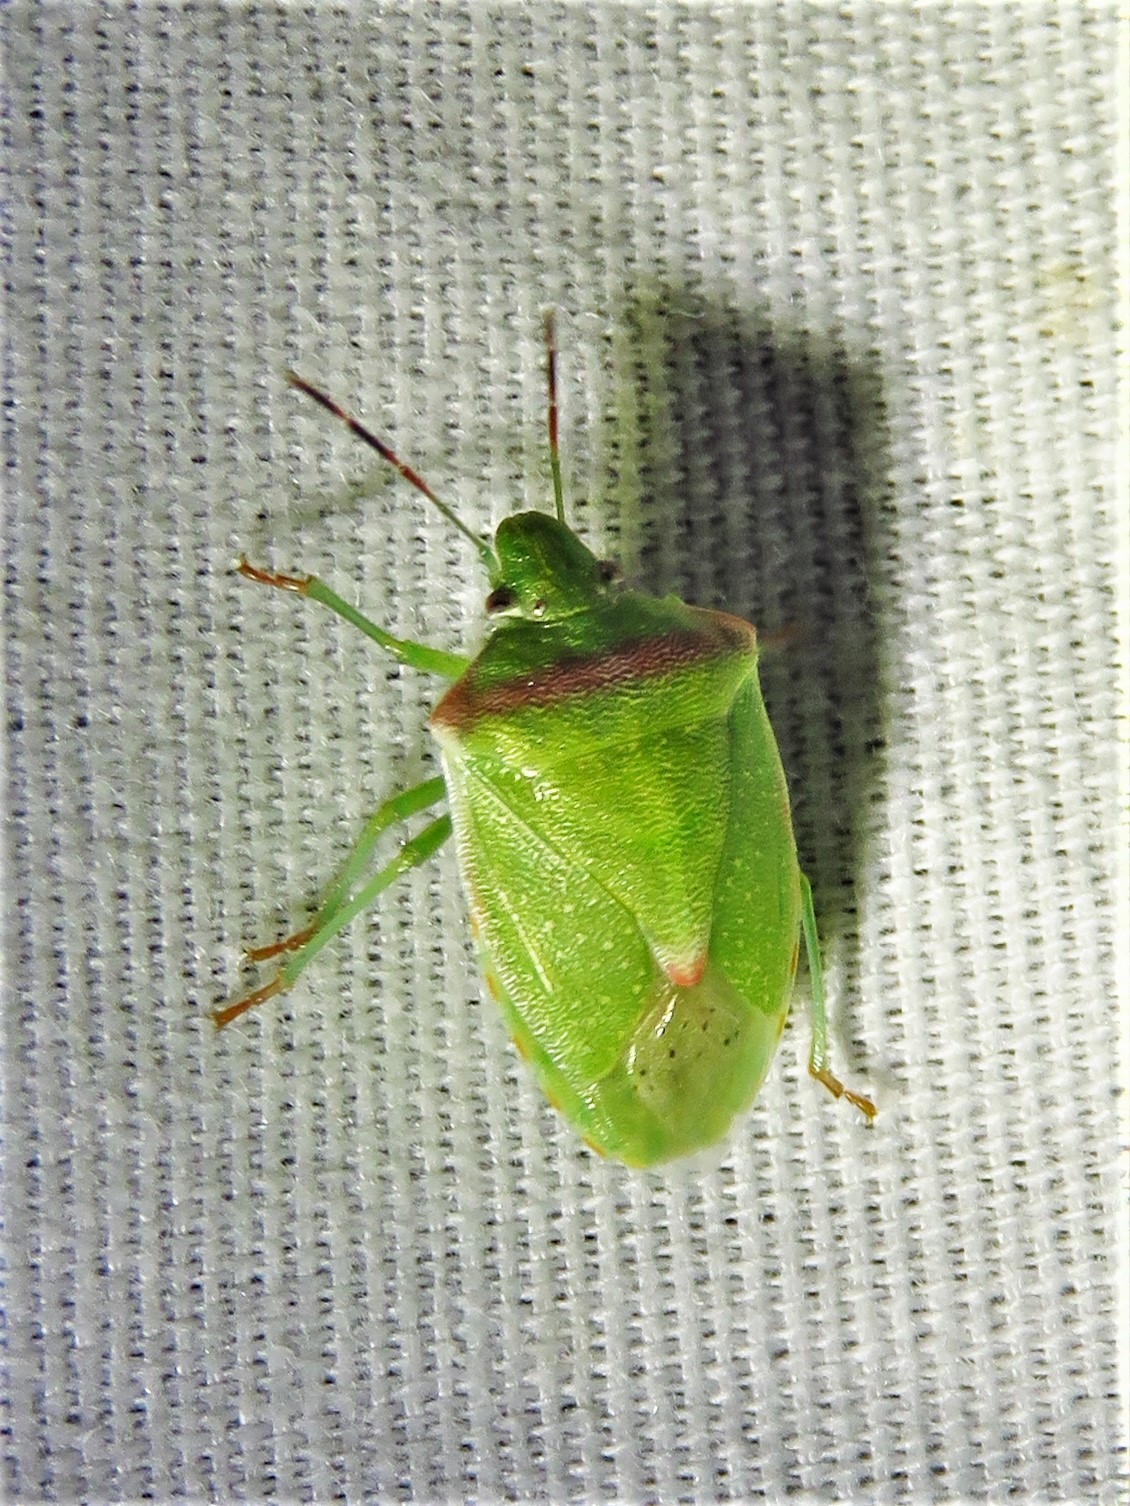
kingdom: Animalia
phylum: Arthropoda
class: Insecta
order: Hemiptera
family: Pentatomidae
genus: Thyanta
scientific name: Thyanta custator
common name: Stink bug
